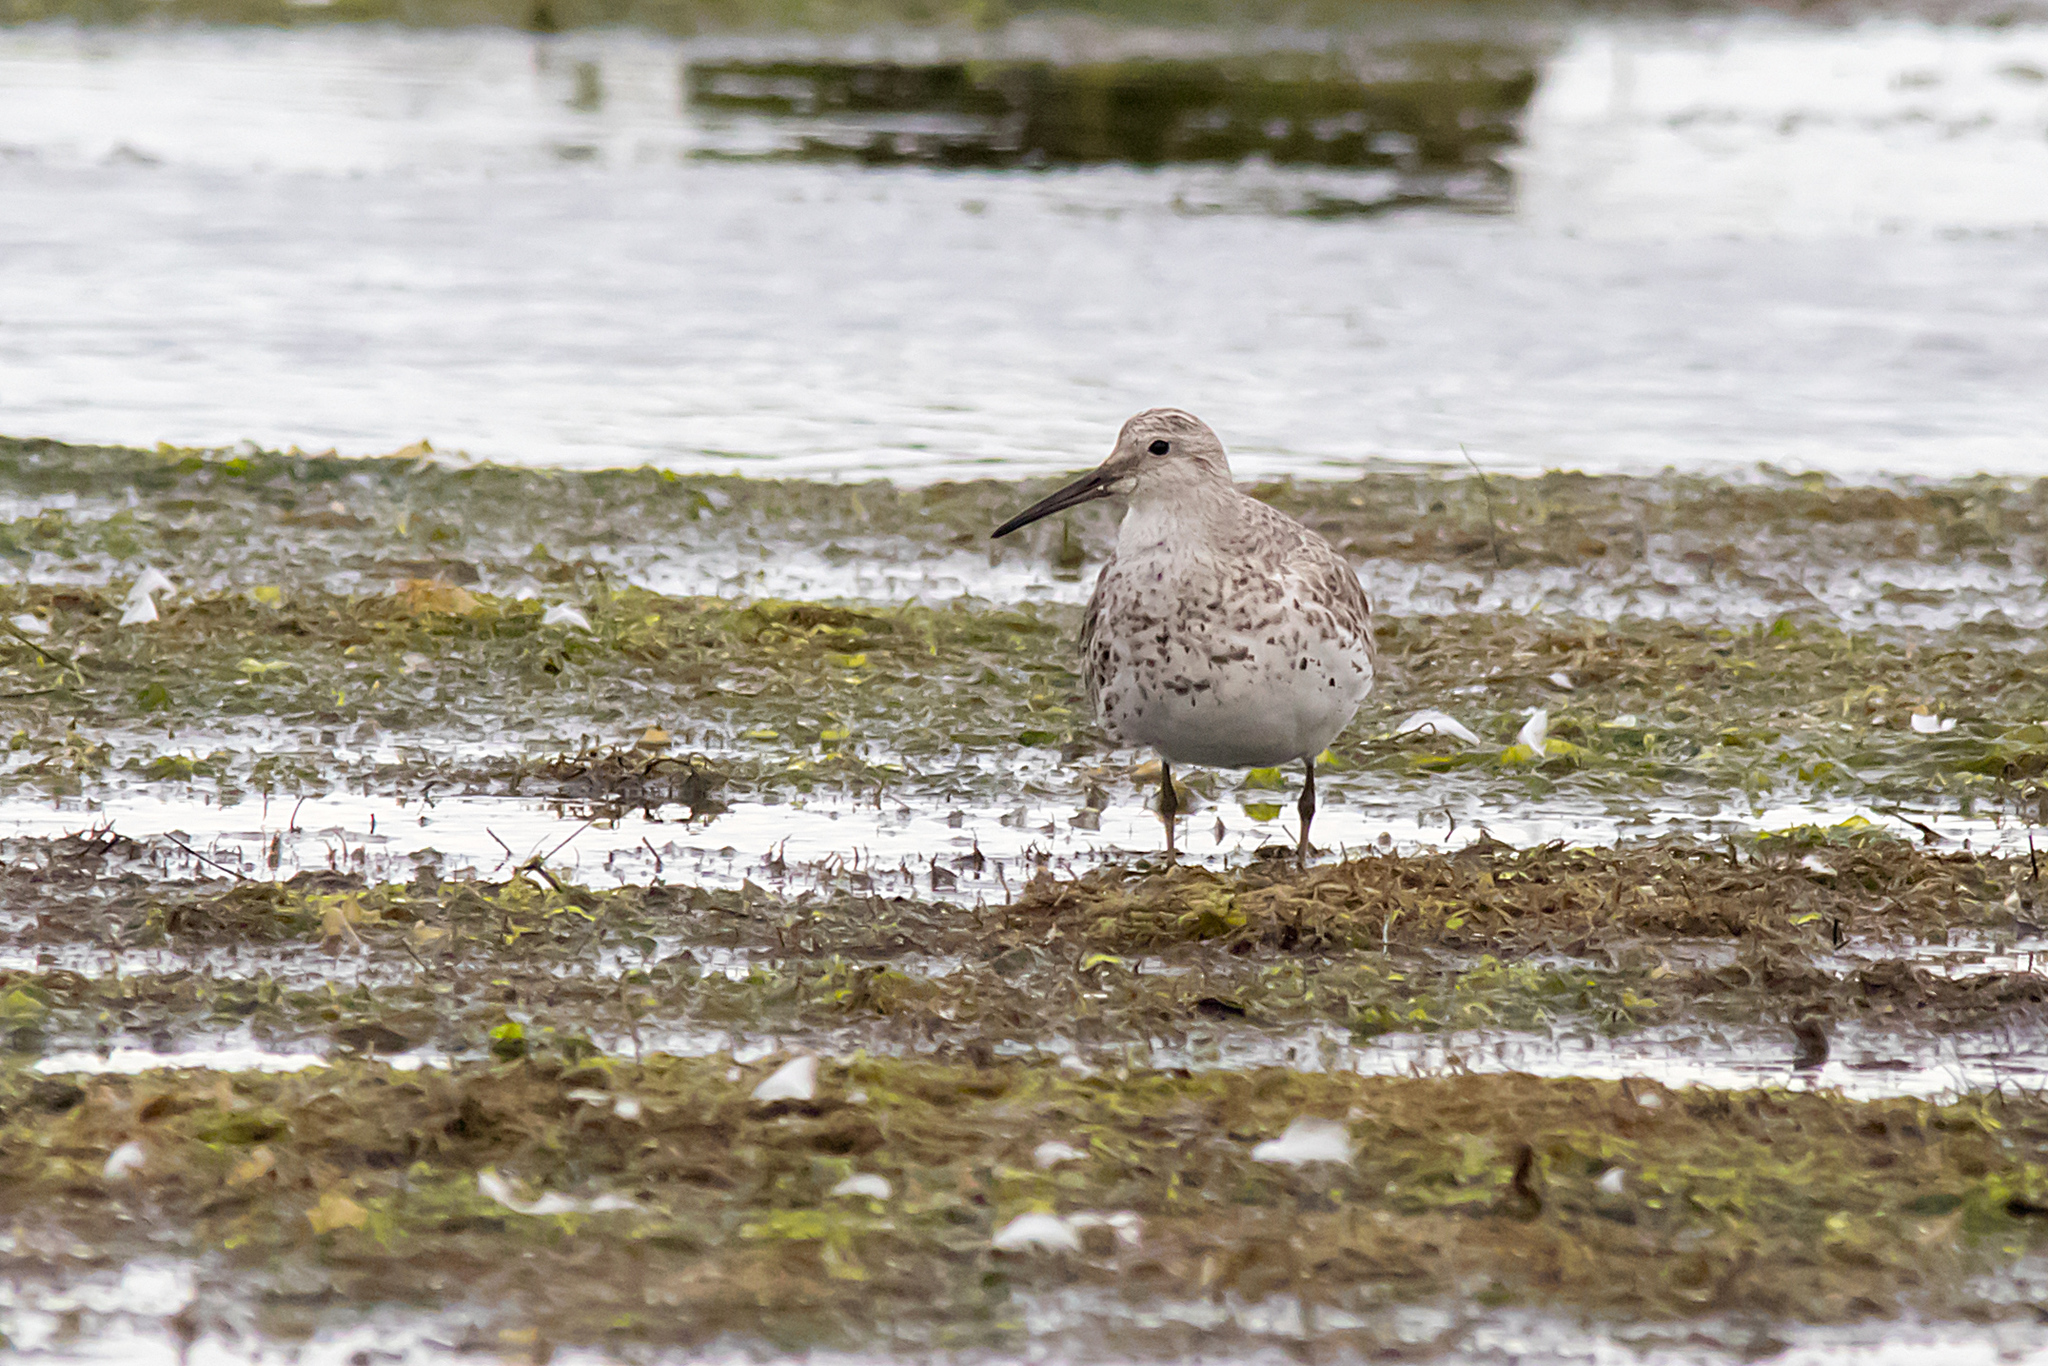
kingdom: Animalia
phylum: Chordata
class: Aves
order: Charadriiformes
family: Scolopacidae
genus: Calidris
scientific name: Calidris tenuirostris
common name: Great knot
